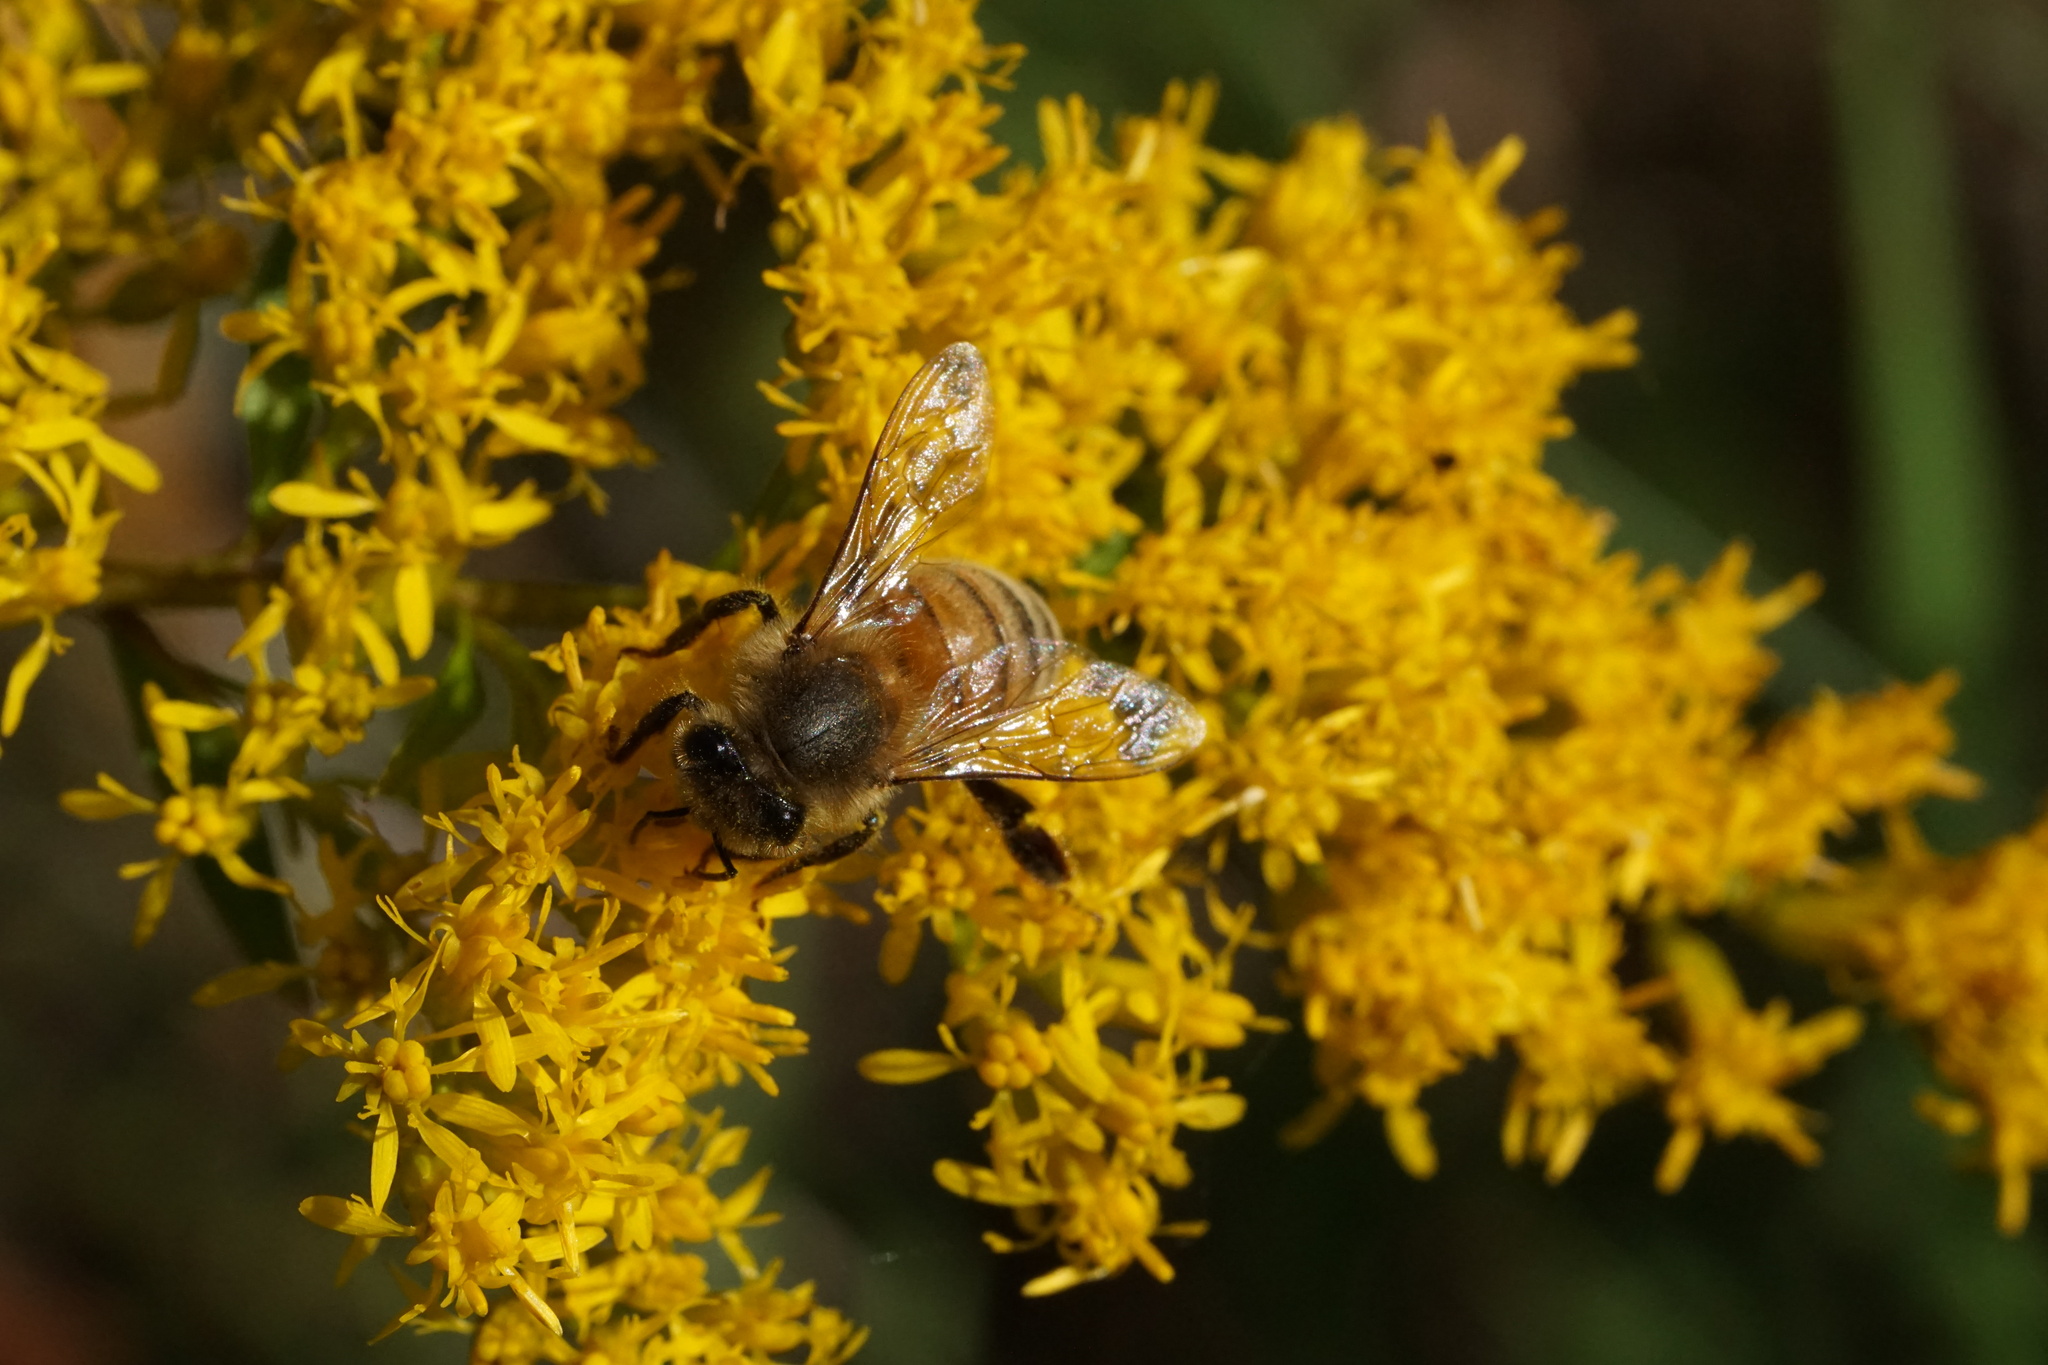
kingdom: Animalia
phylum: Arthropoda
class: Insecta
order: Hymenoptera
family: Apidae
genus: Apis
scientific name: Apis mellifera
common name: Honey bee
